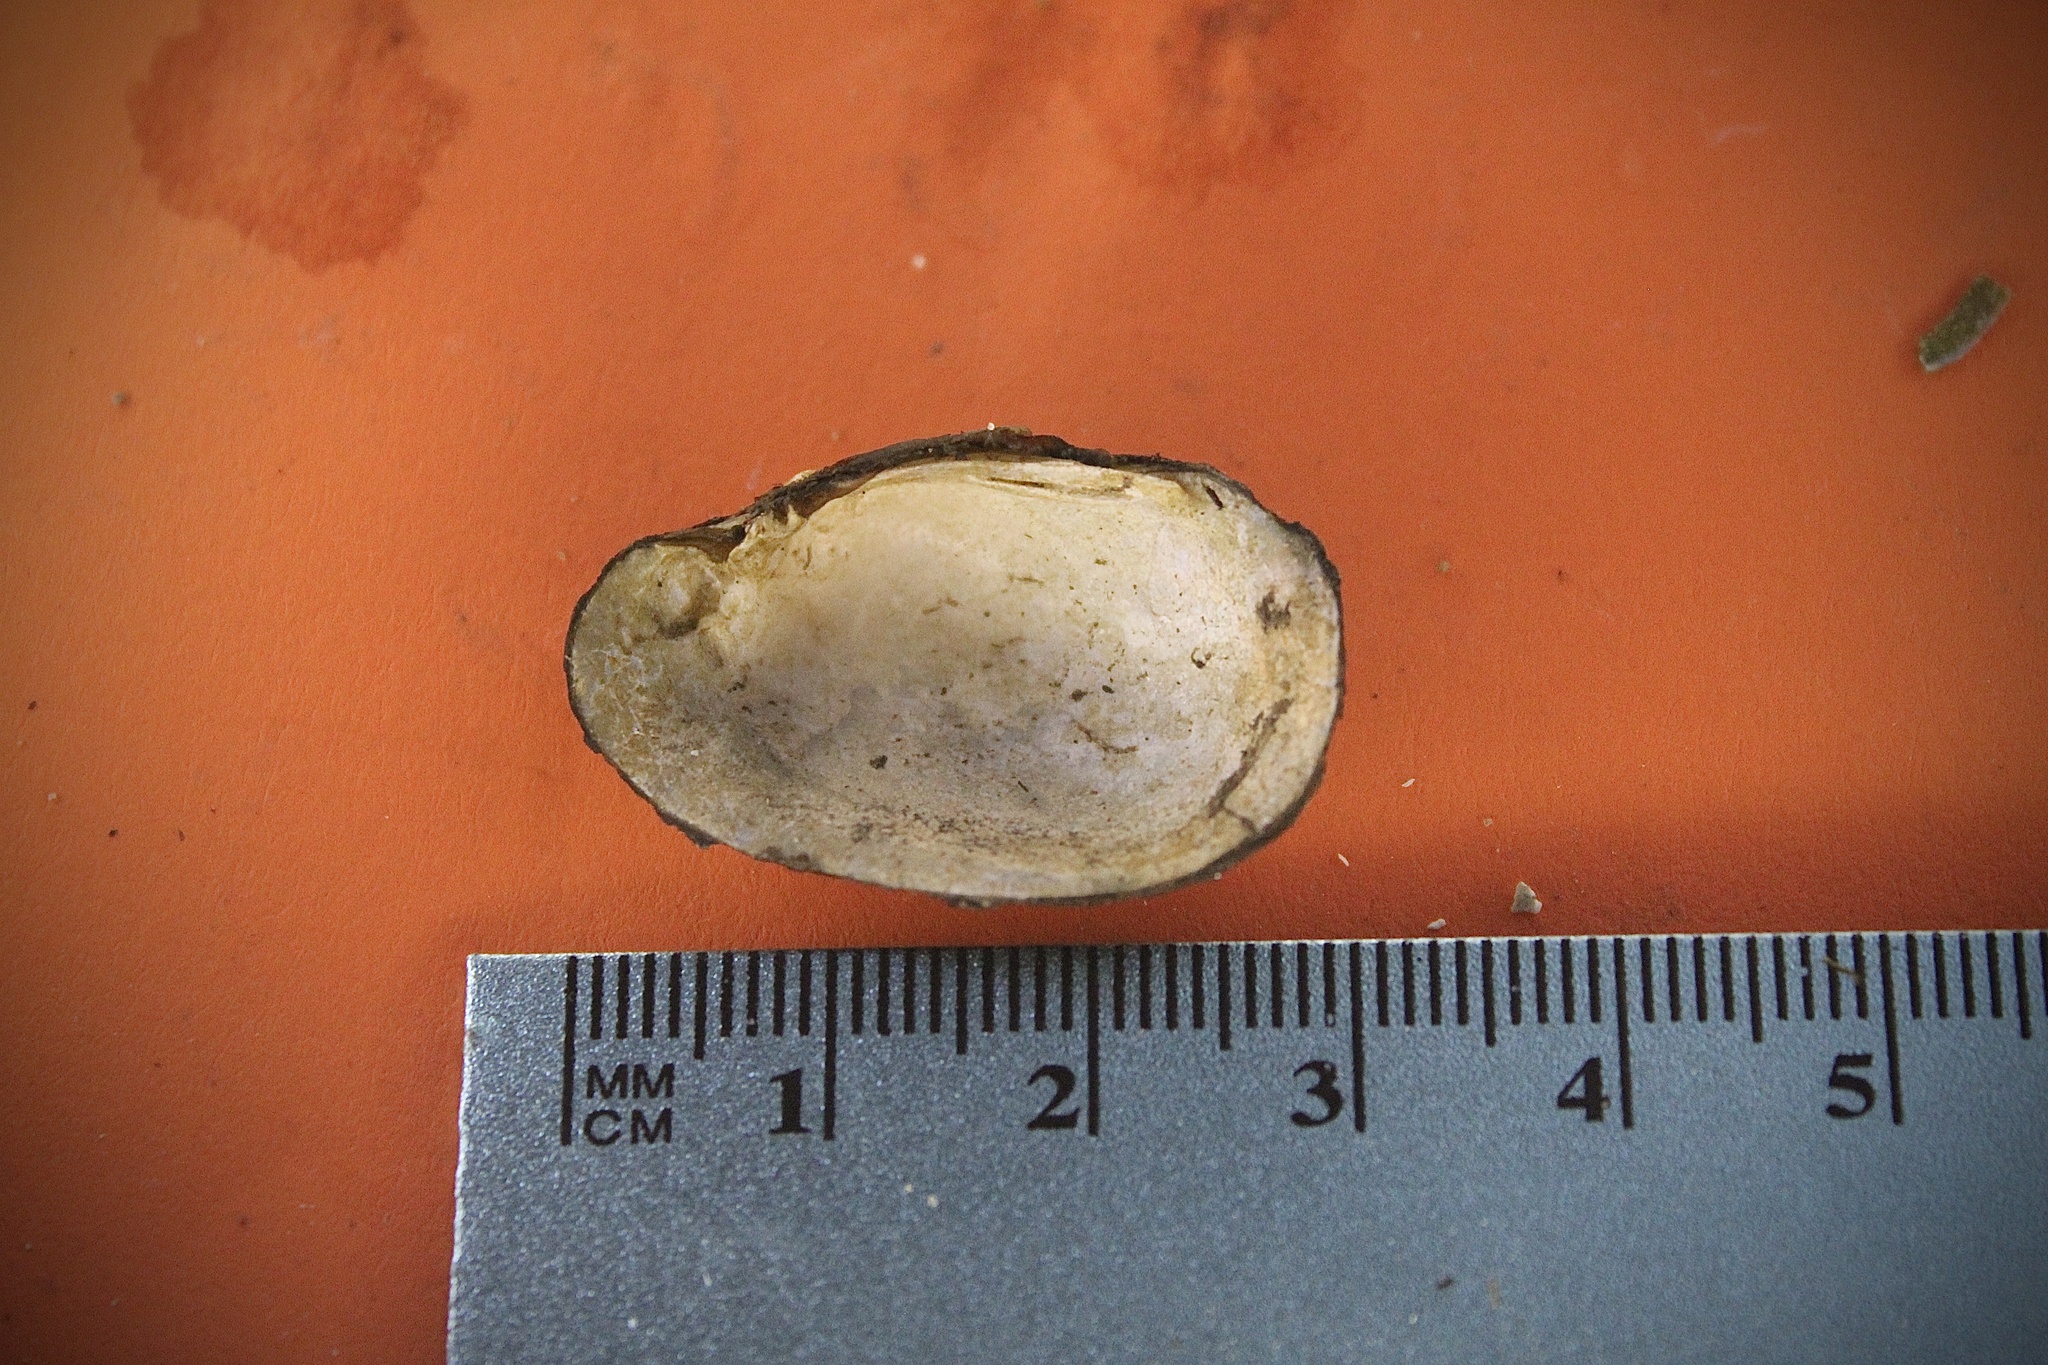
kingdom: Animalia
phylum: Mollusca
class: Bivalvia
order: Unionida
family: Unionidae
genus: Toxolasma
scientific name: Toxolasma parvum
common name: Lilliput
